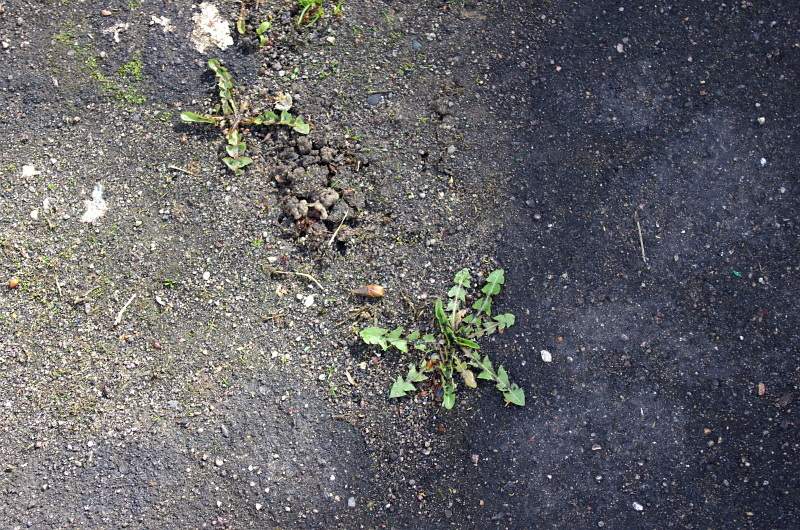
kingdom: Plantae
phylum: Tracheophyta
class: Magnoliopsida
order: Asterales
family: Asteraceae
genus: Taraxacum
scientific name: Taraxacum officinale
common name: Common dandelion
